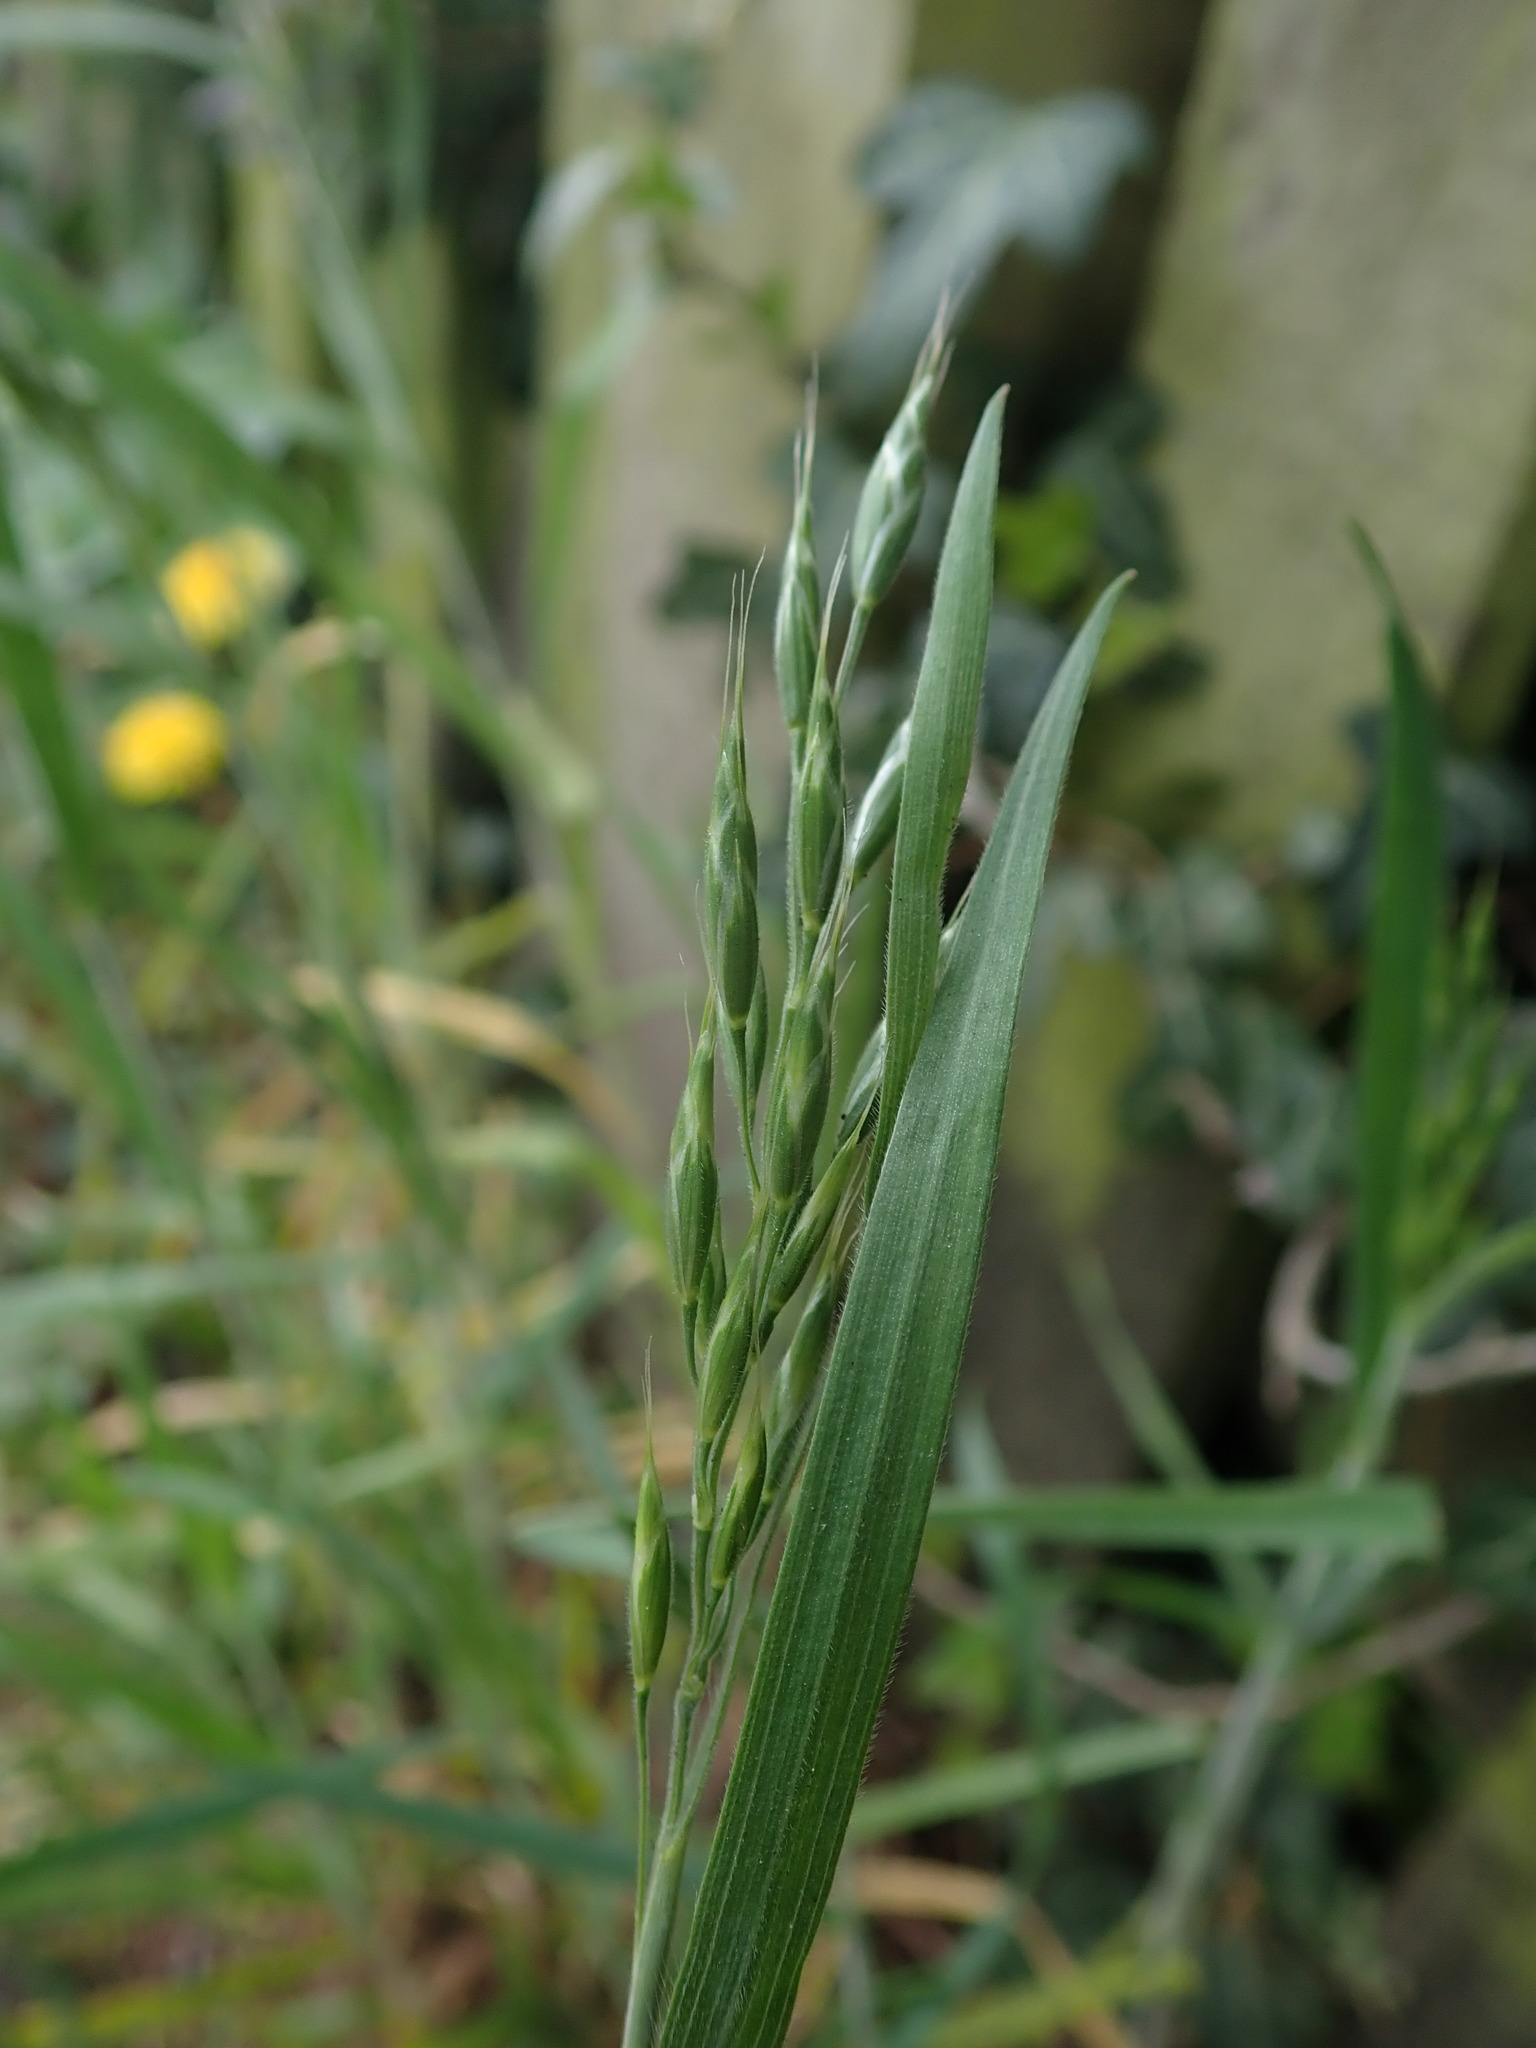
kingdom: Plantae
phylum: Tracheophyta
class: Liliopsida
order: Poales
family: Poaceae
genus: Bromus
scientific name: Bromus hordeaceus
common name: Soft brome
